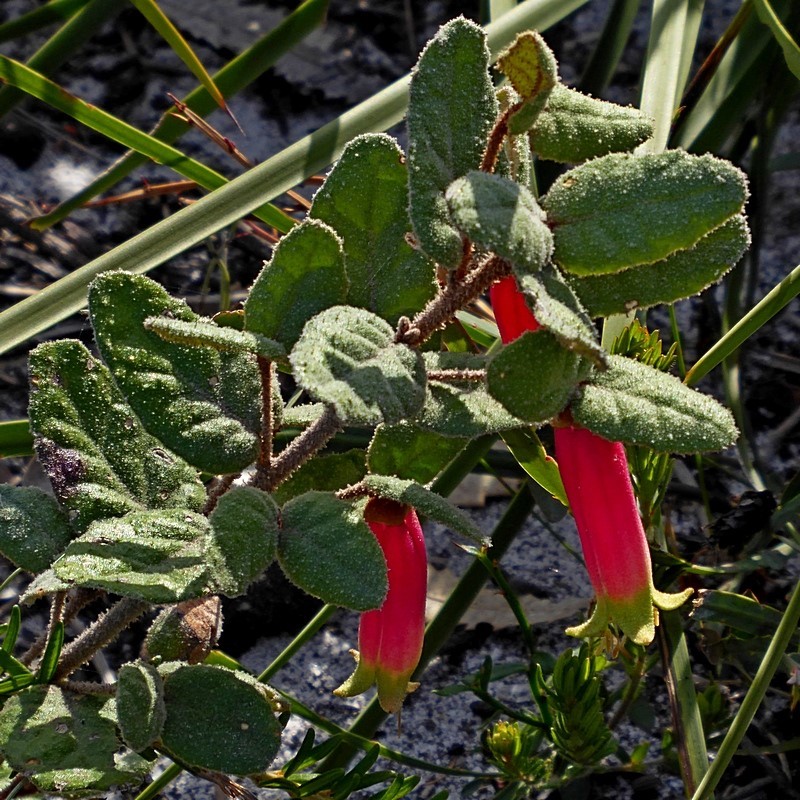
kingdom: Plantae
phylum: Tracheophyta
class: Magnoliopsida
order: Sapindales
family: Rutaceae
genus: Correa
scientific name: Correa reflexa
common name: Common correa
